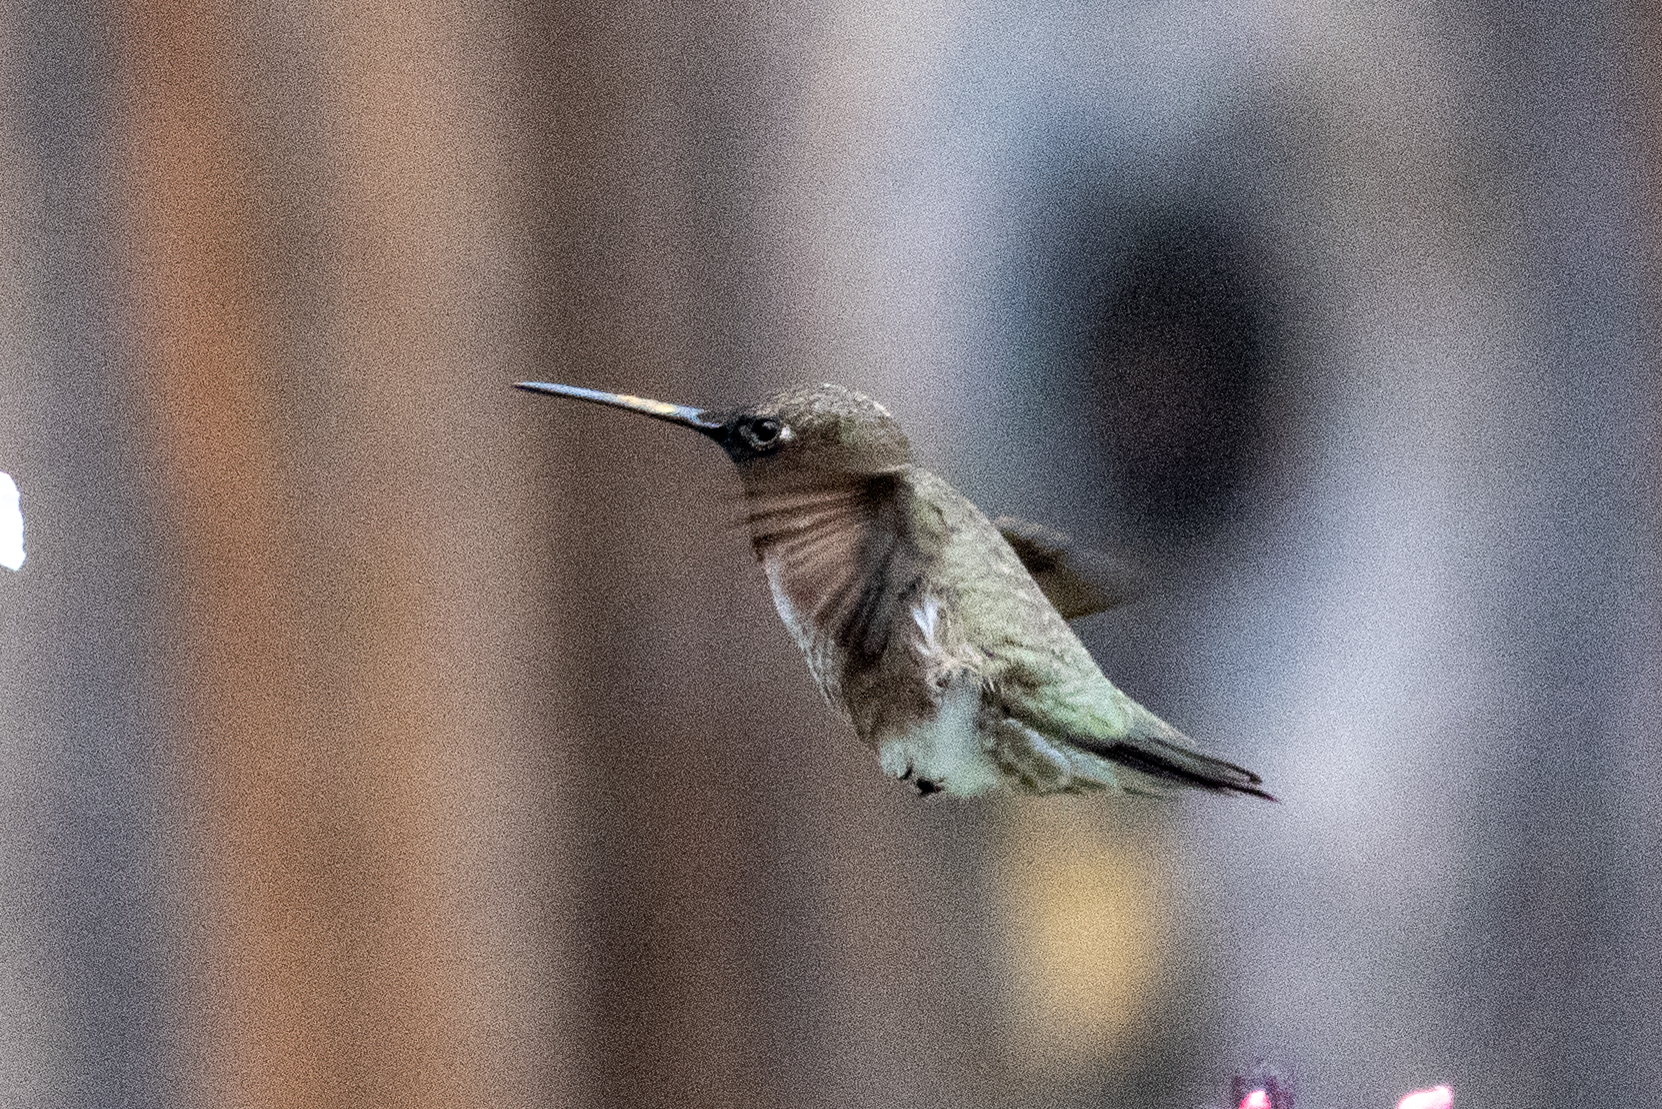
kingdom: Animalia
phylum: Chordata
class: Aves
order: Apodiformes
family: Trochilidae
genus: Archilochus
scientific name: Archilochus alexandri
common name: Black-chinned hummingbird
